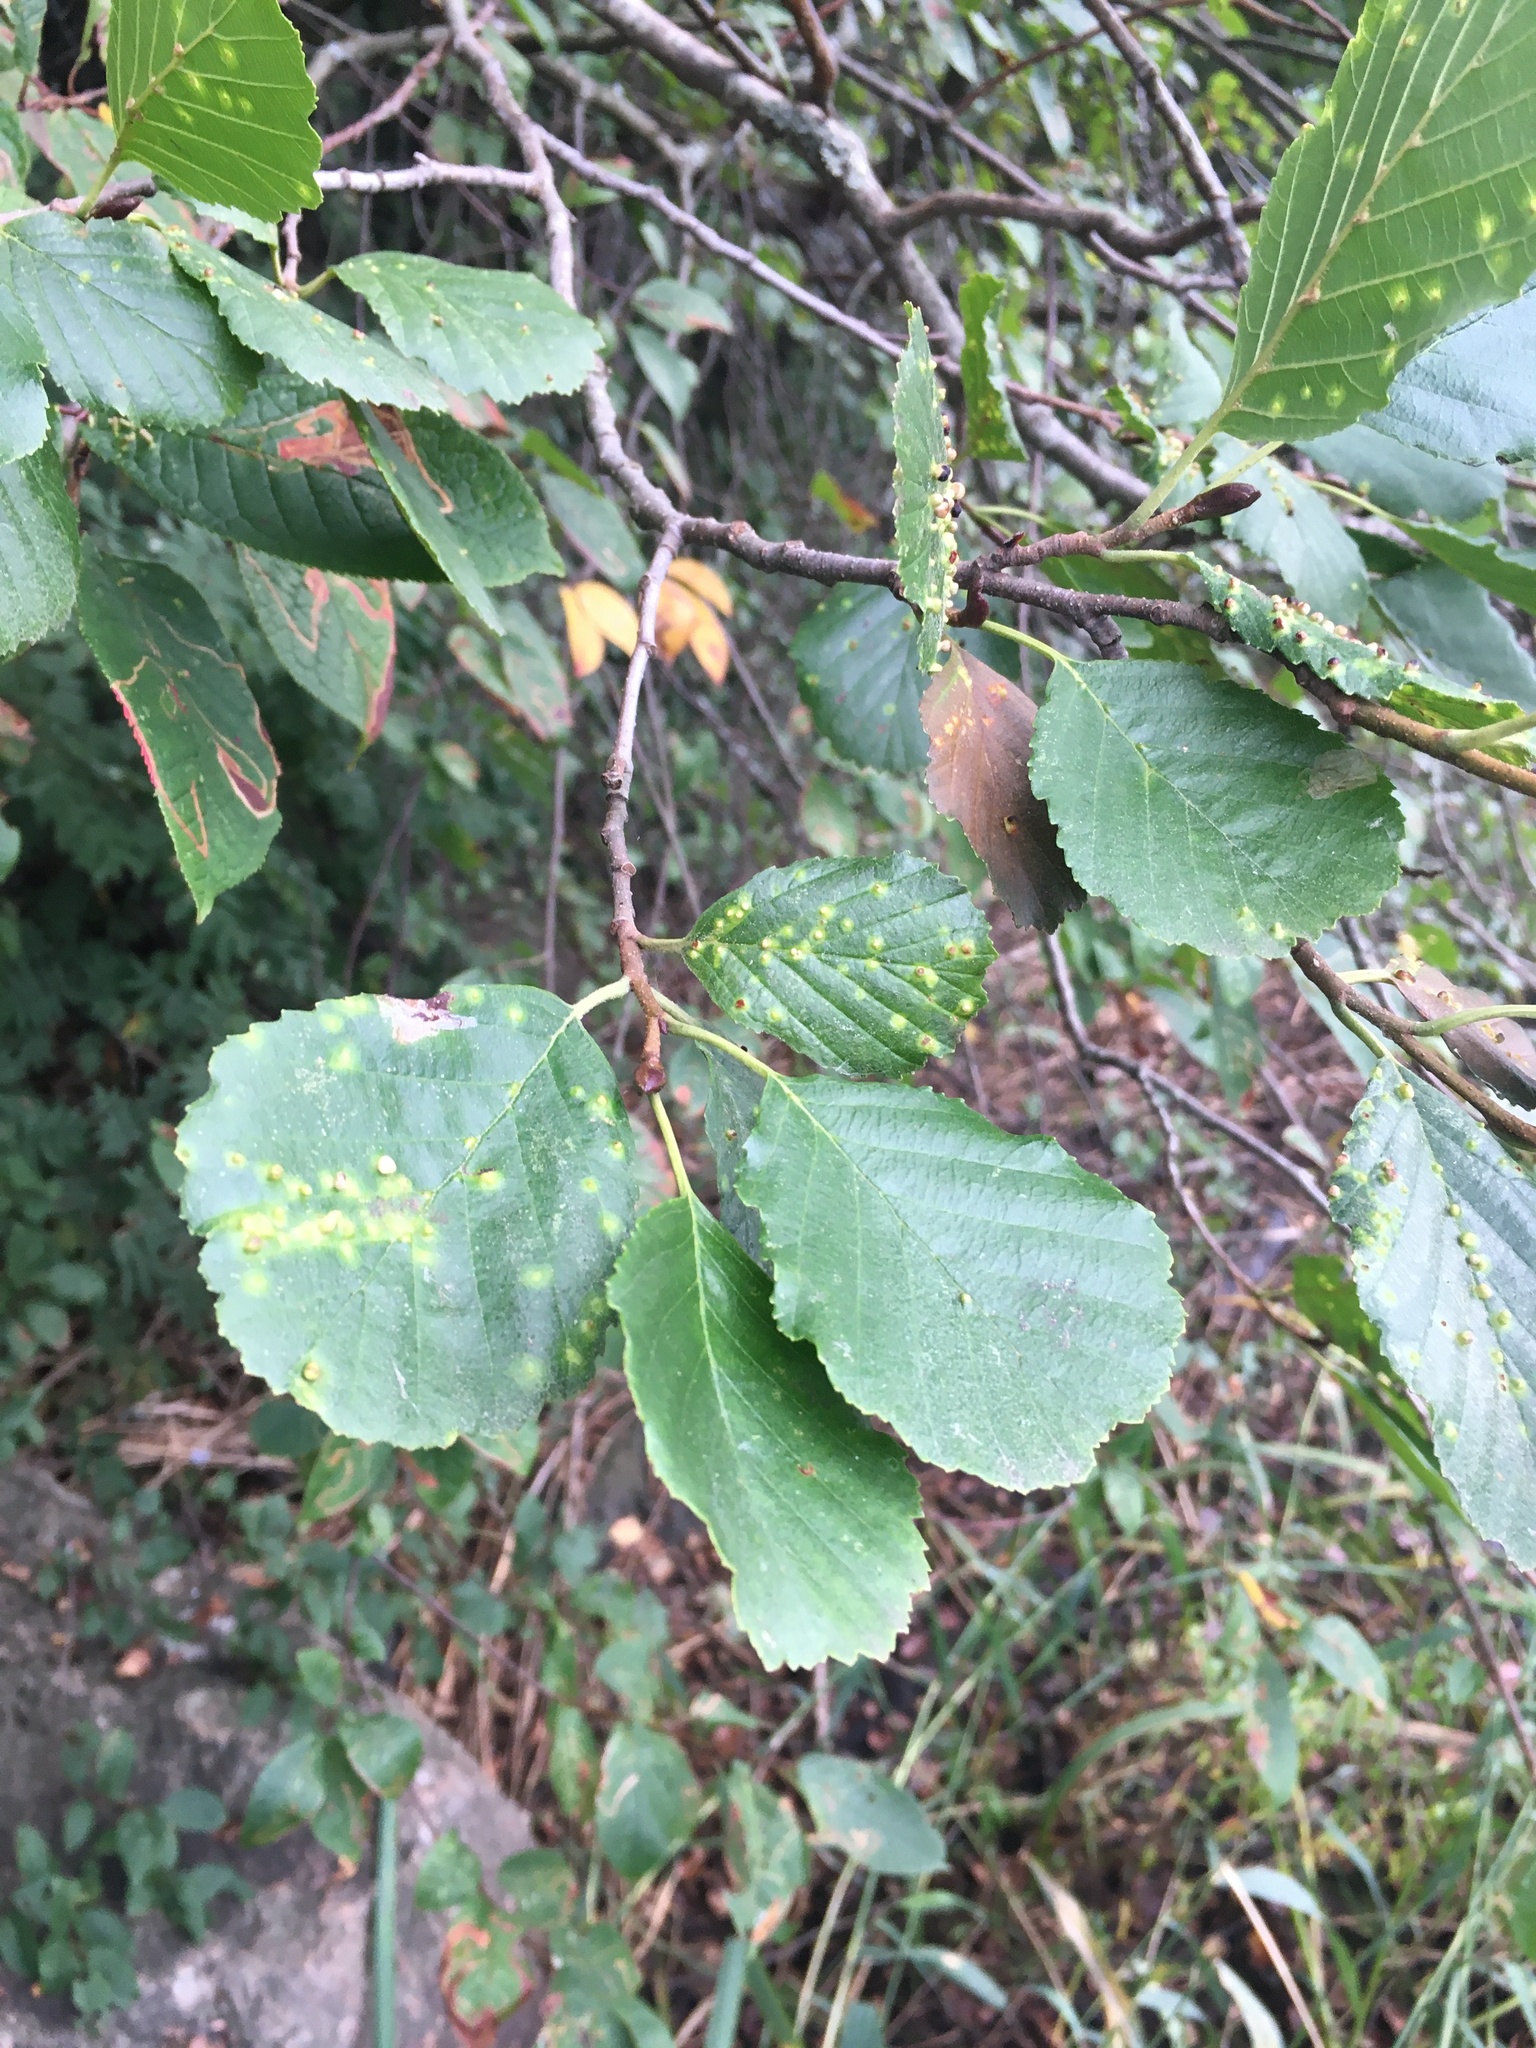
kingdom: Plantae
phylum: Tracheophyta
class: Magnoliopsida
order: Fagales
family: Betulaceae
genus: Alnus
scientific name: Alnus glutinosa
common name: Black alder
